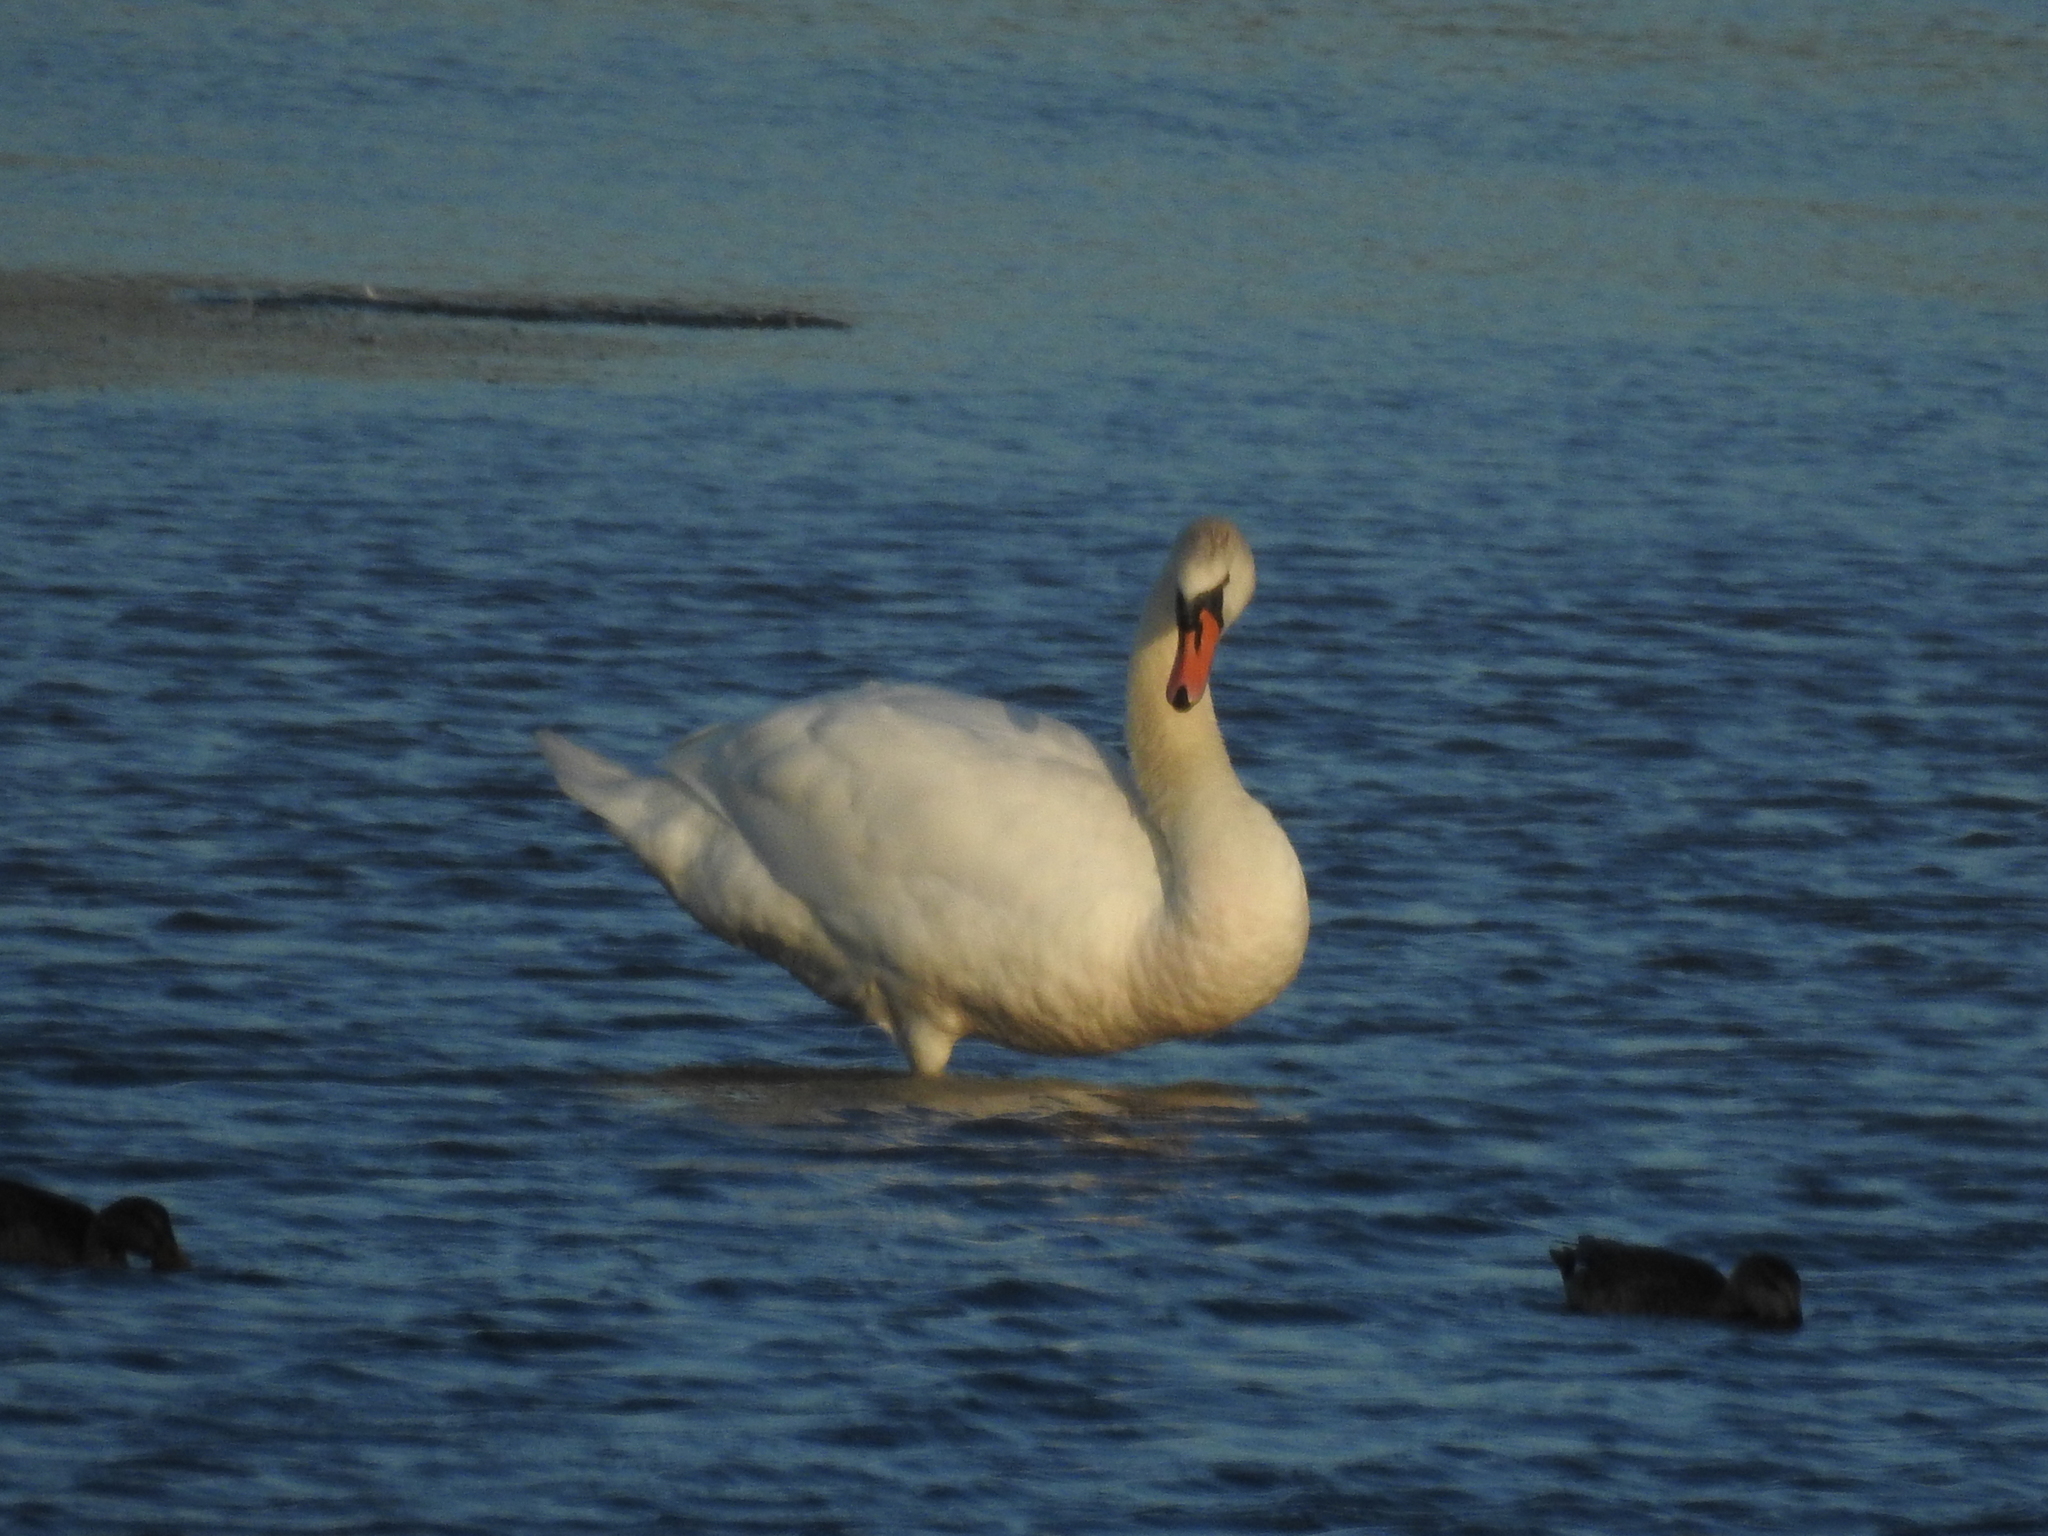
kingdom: Animalia
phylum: Chordata
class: Aves
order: Anseriformes
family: Anatidae
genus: Cygnus
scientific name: Cygnus olor
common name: Mute swan
